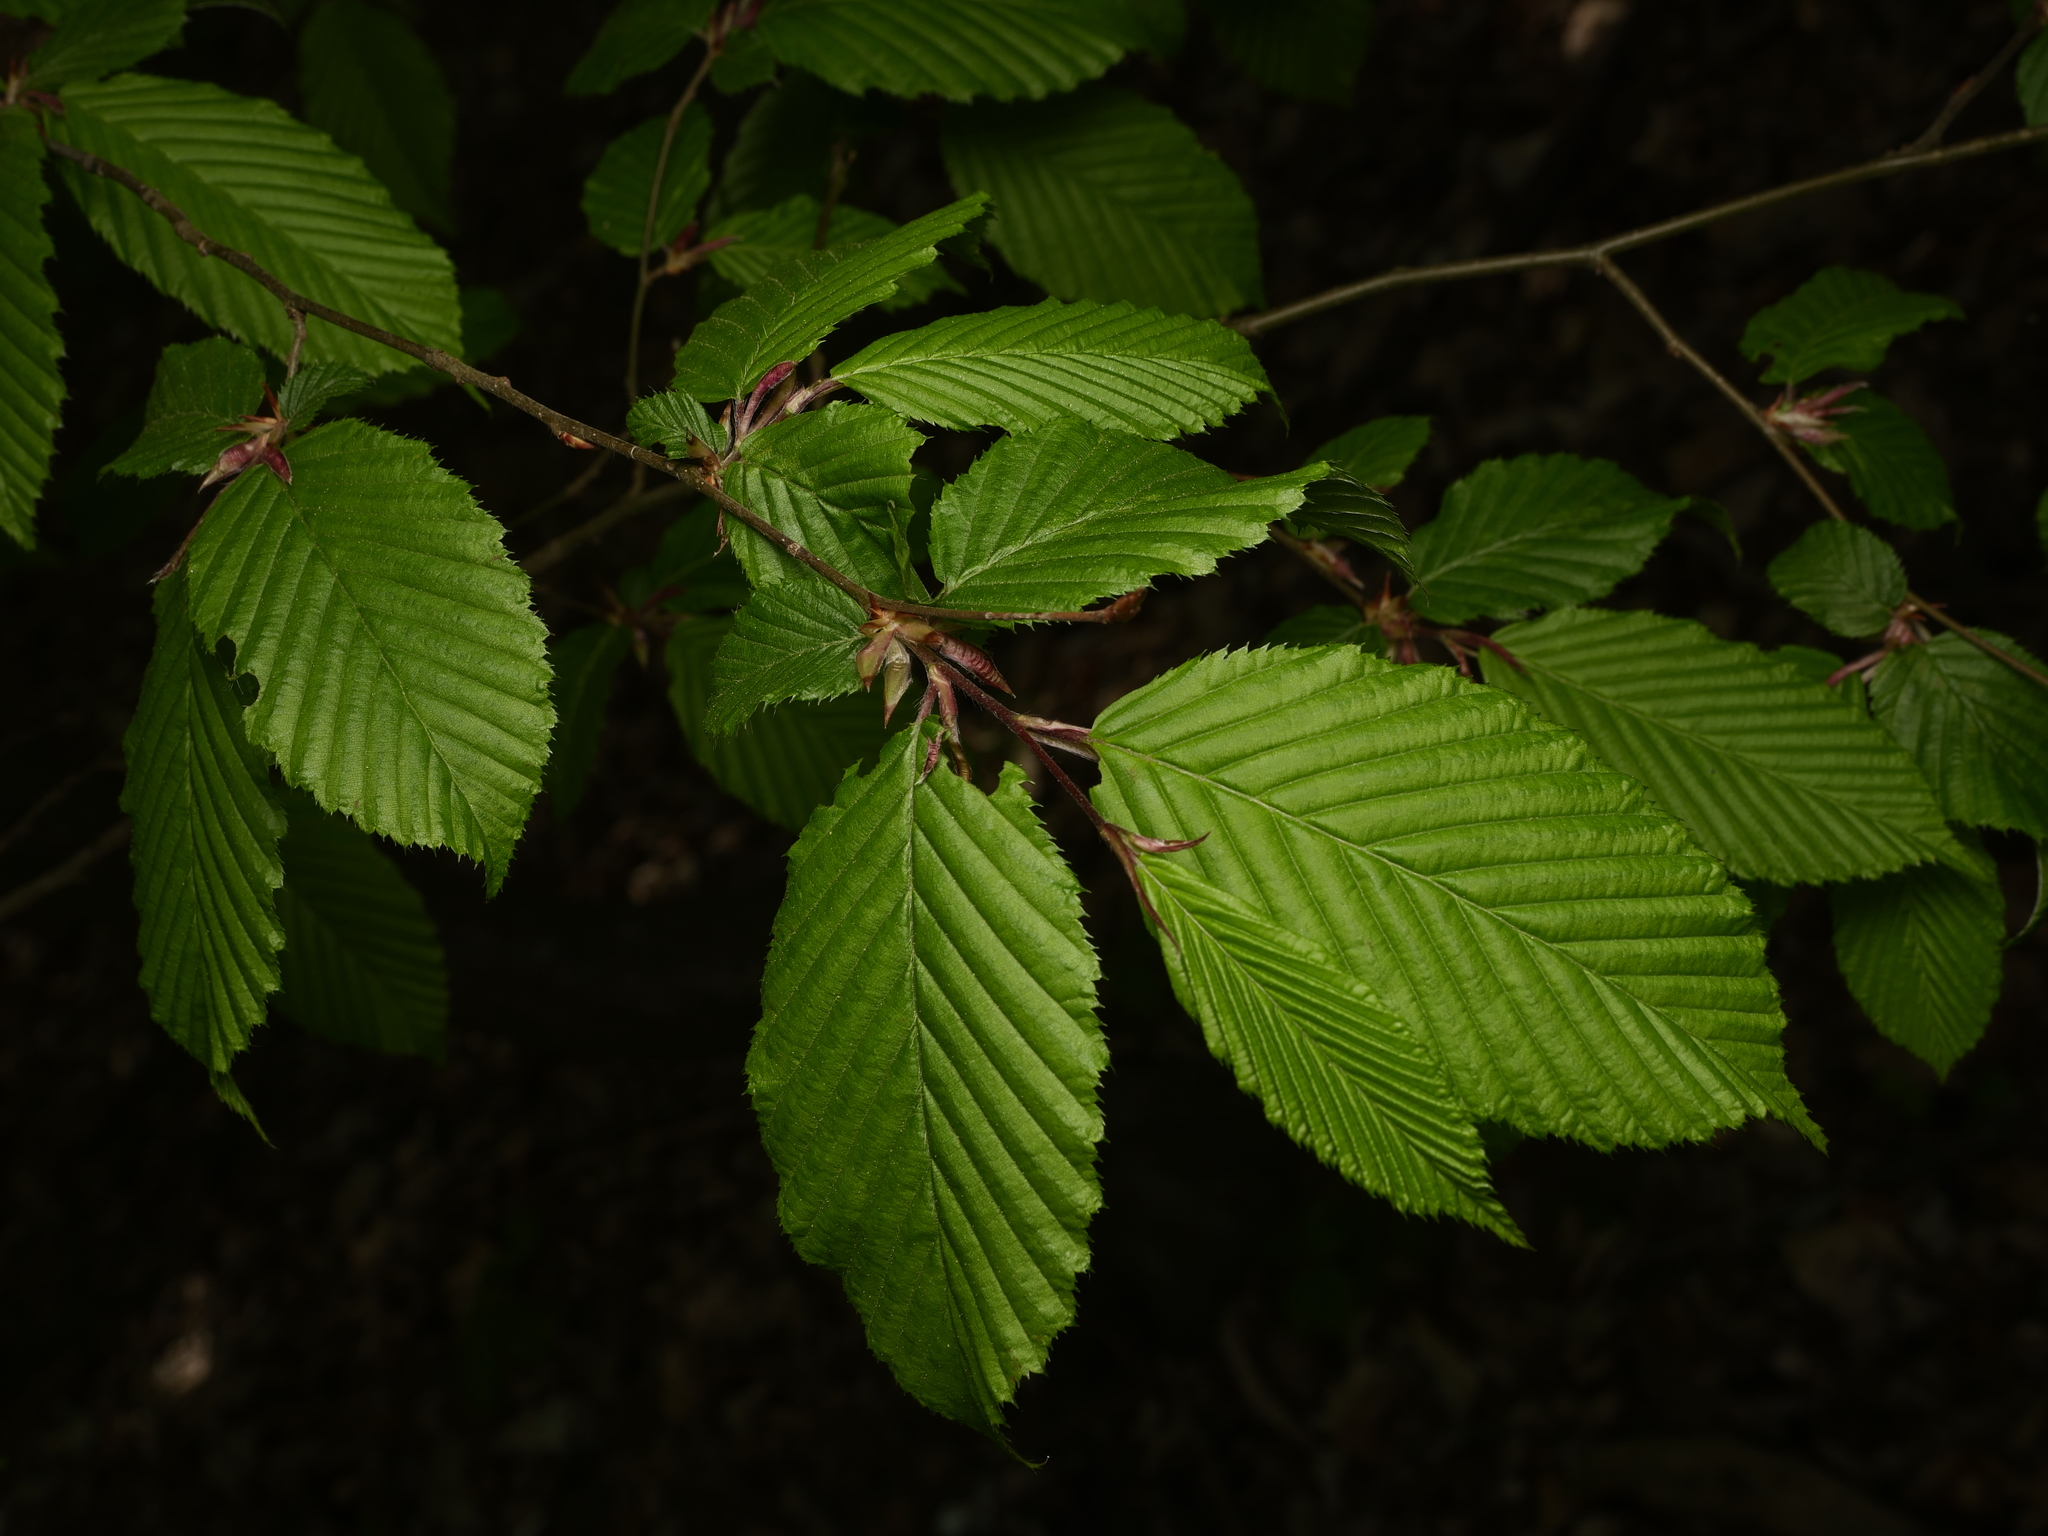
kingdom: Plantae
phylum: Tracheophyta
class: Magnoliopsida
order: Fagales
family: Betulaceae
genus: Carpinus
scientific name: Carpinus betulus
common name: Hornbeam
